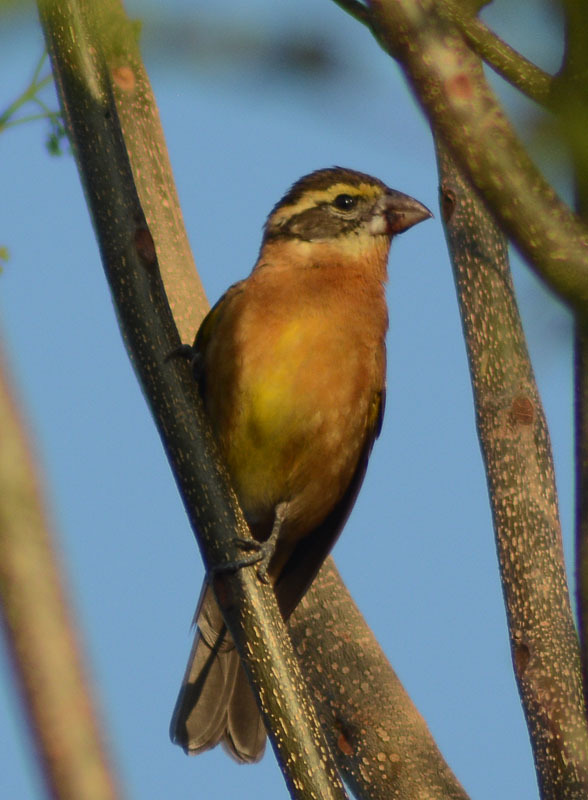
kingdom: Animalia
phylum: Chordata
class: Aves
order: Passeriformes
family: Cardinalidae
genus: Pheucticus
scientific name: Pheucticus melanocephalus
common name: Black-headed grosbeak
